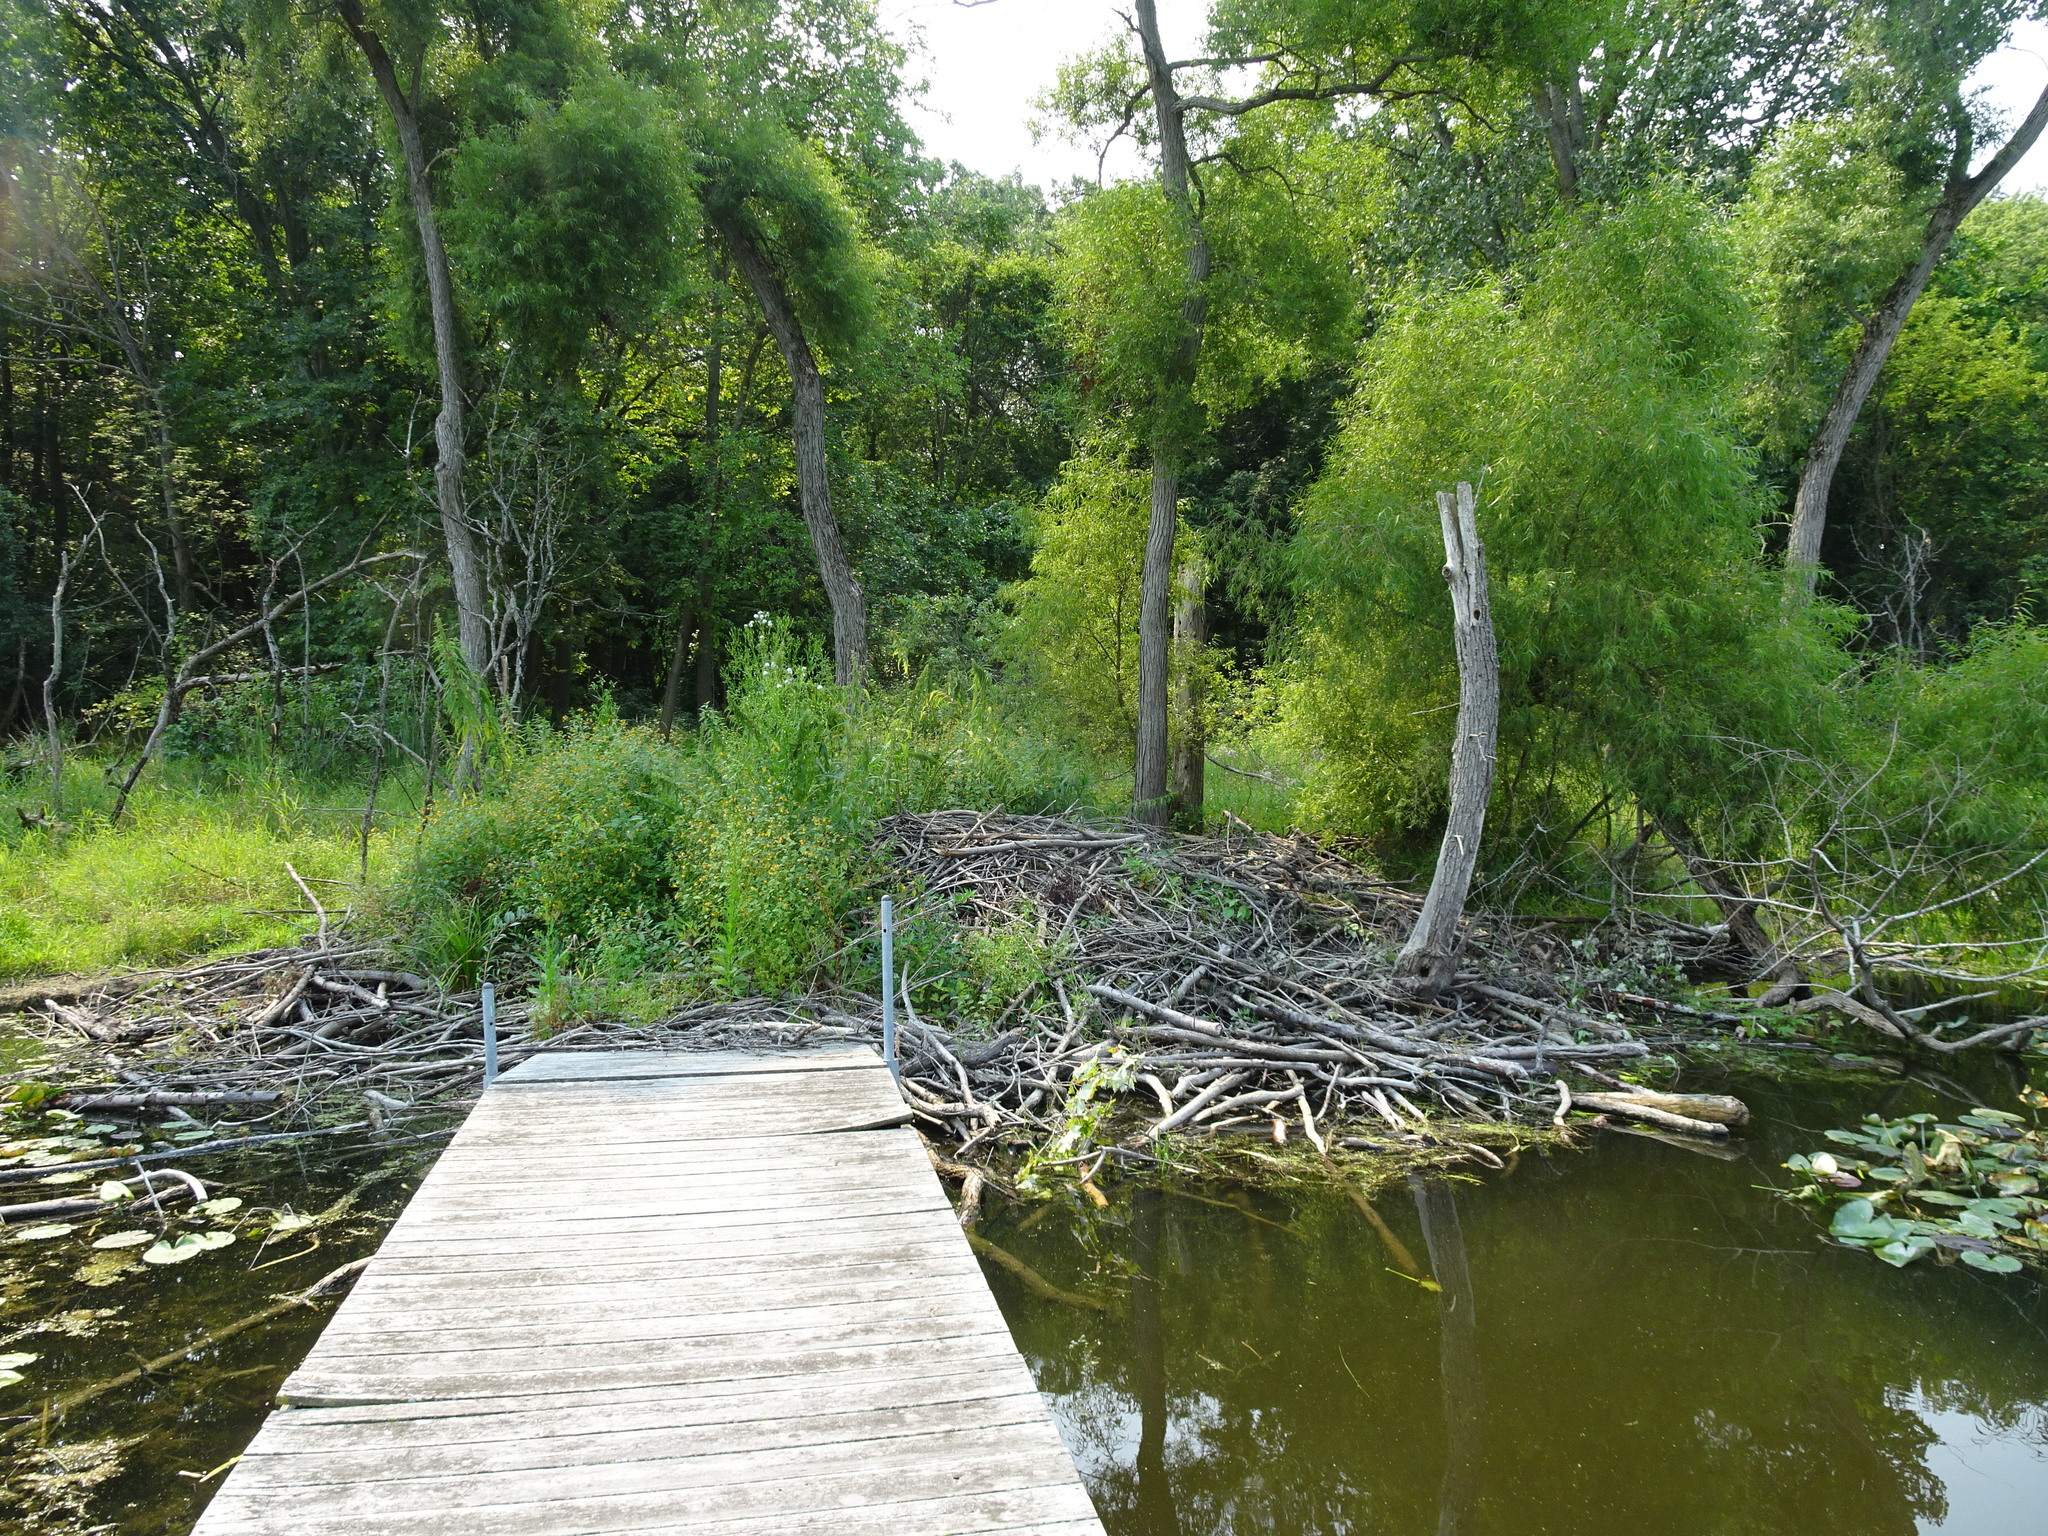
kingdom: Animalia
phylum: Chordata
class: Mammalia
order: Rodentia
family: Castoridae
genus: Castor
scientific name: Castor canadensis
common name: American beaver
